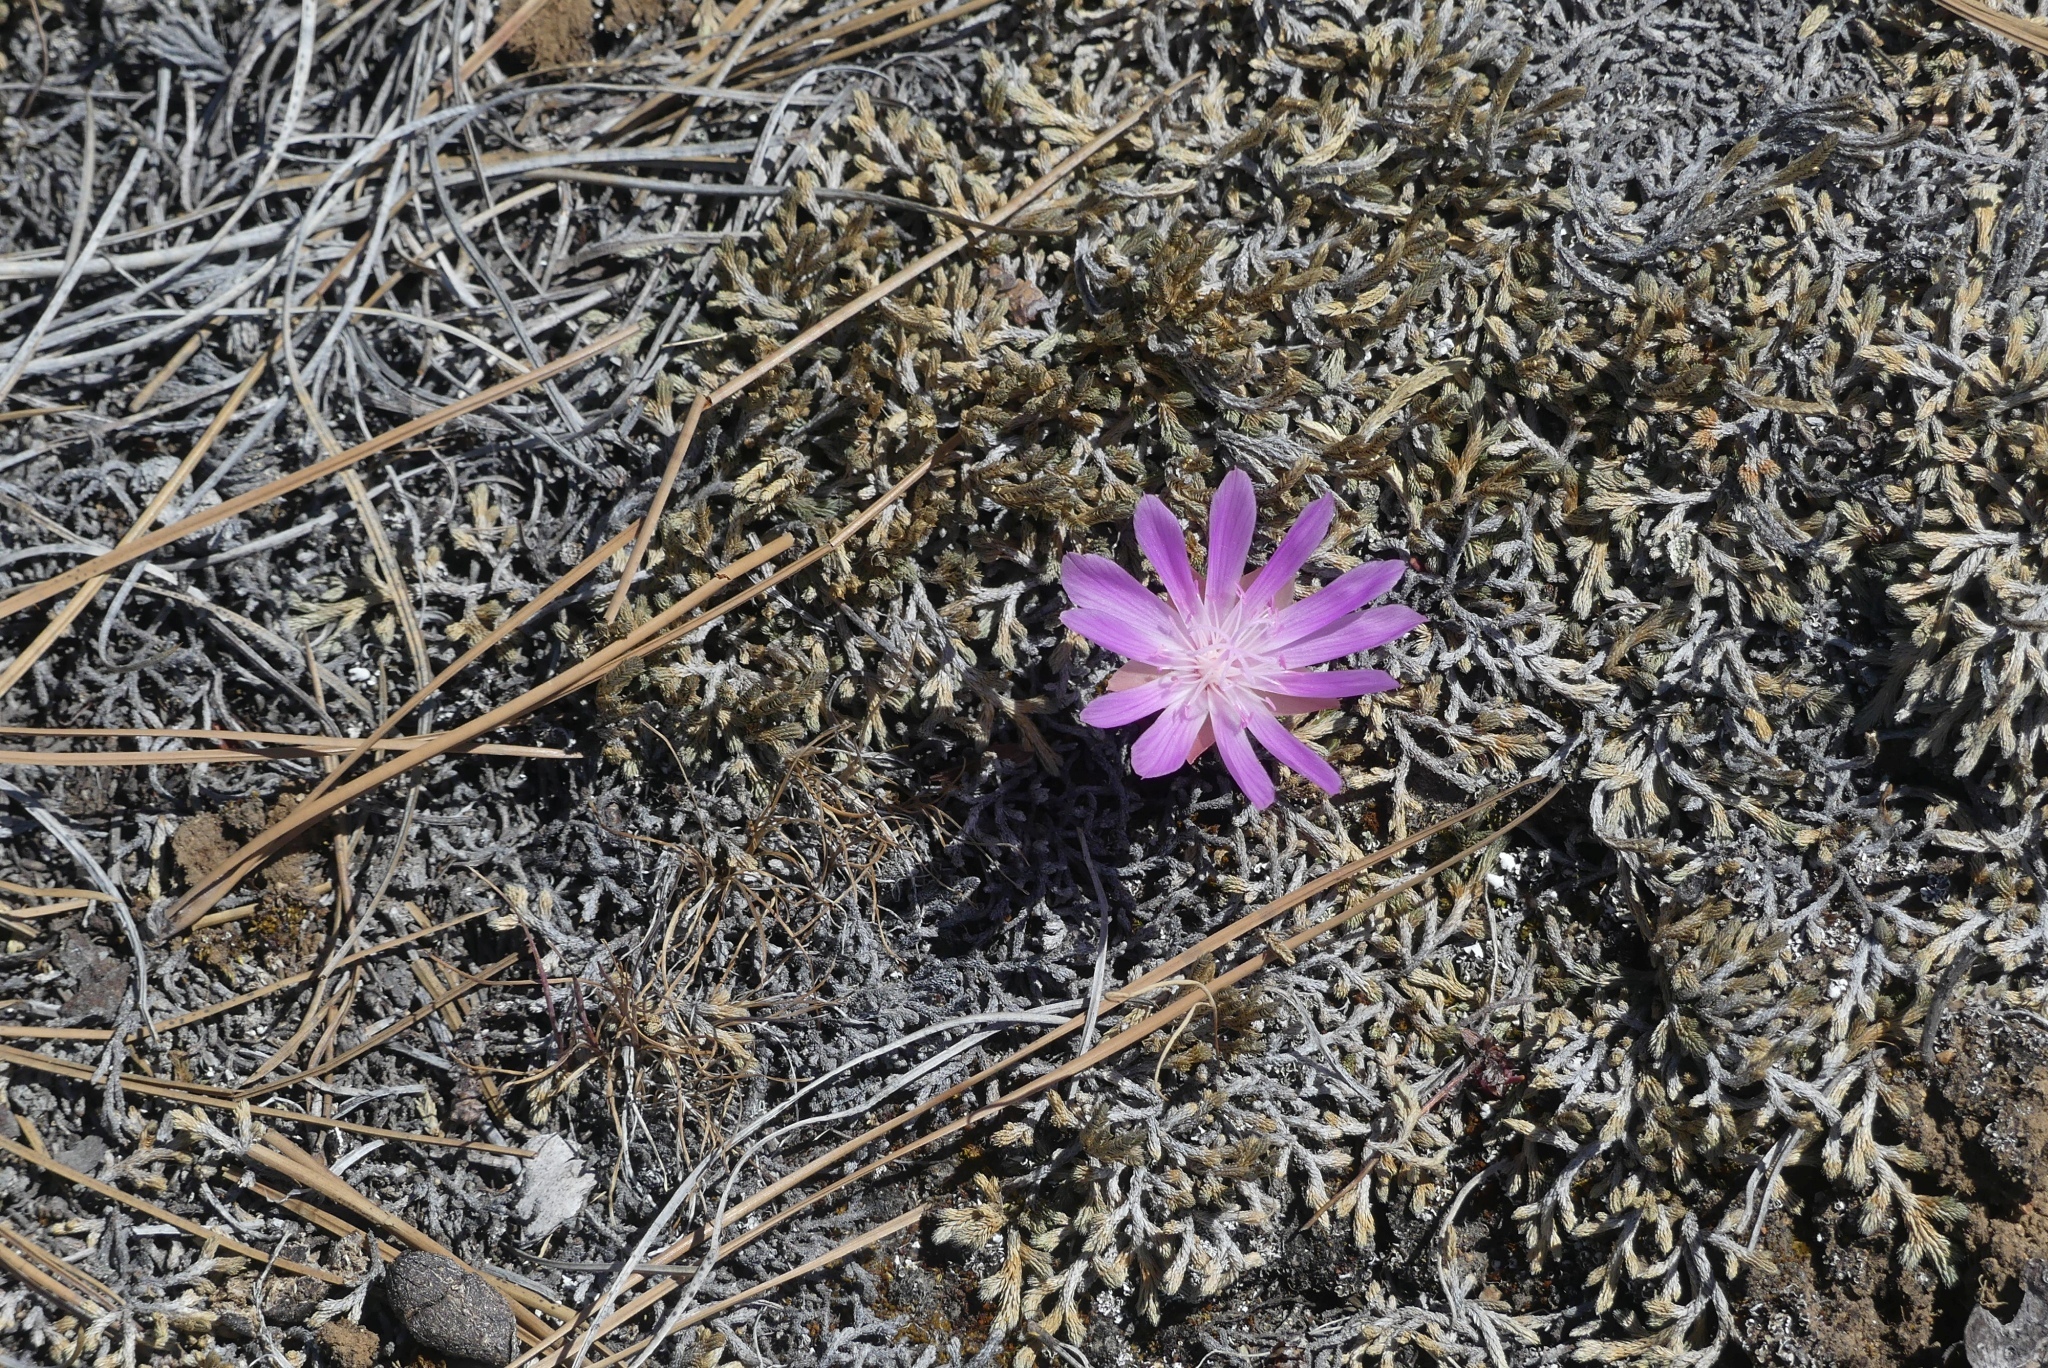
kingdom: Plantae
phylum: Tracheophyta
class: Magnoliopsida
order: Caryophyllales
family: Montiaceae
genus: Lewisia
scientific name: Lewisia rediviva
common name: Bitter-root
